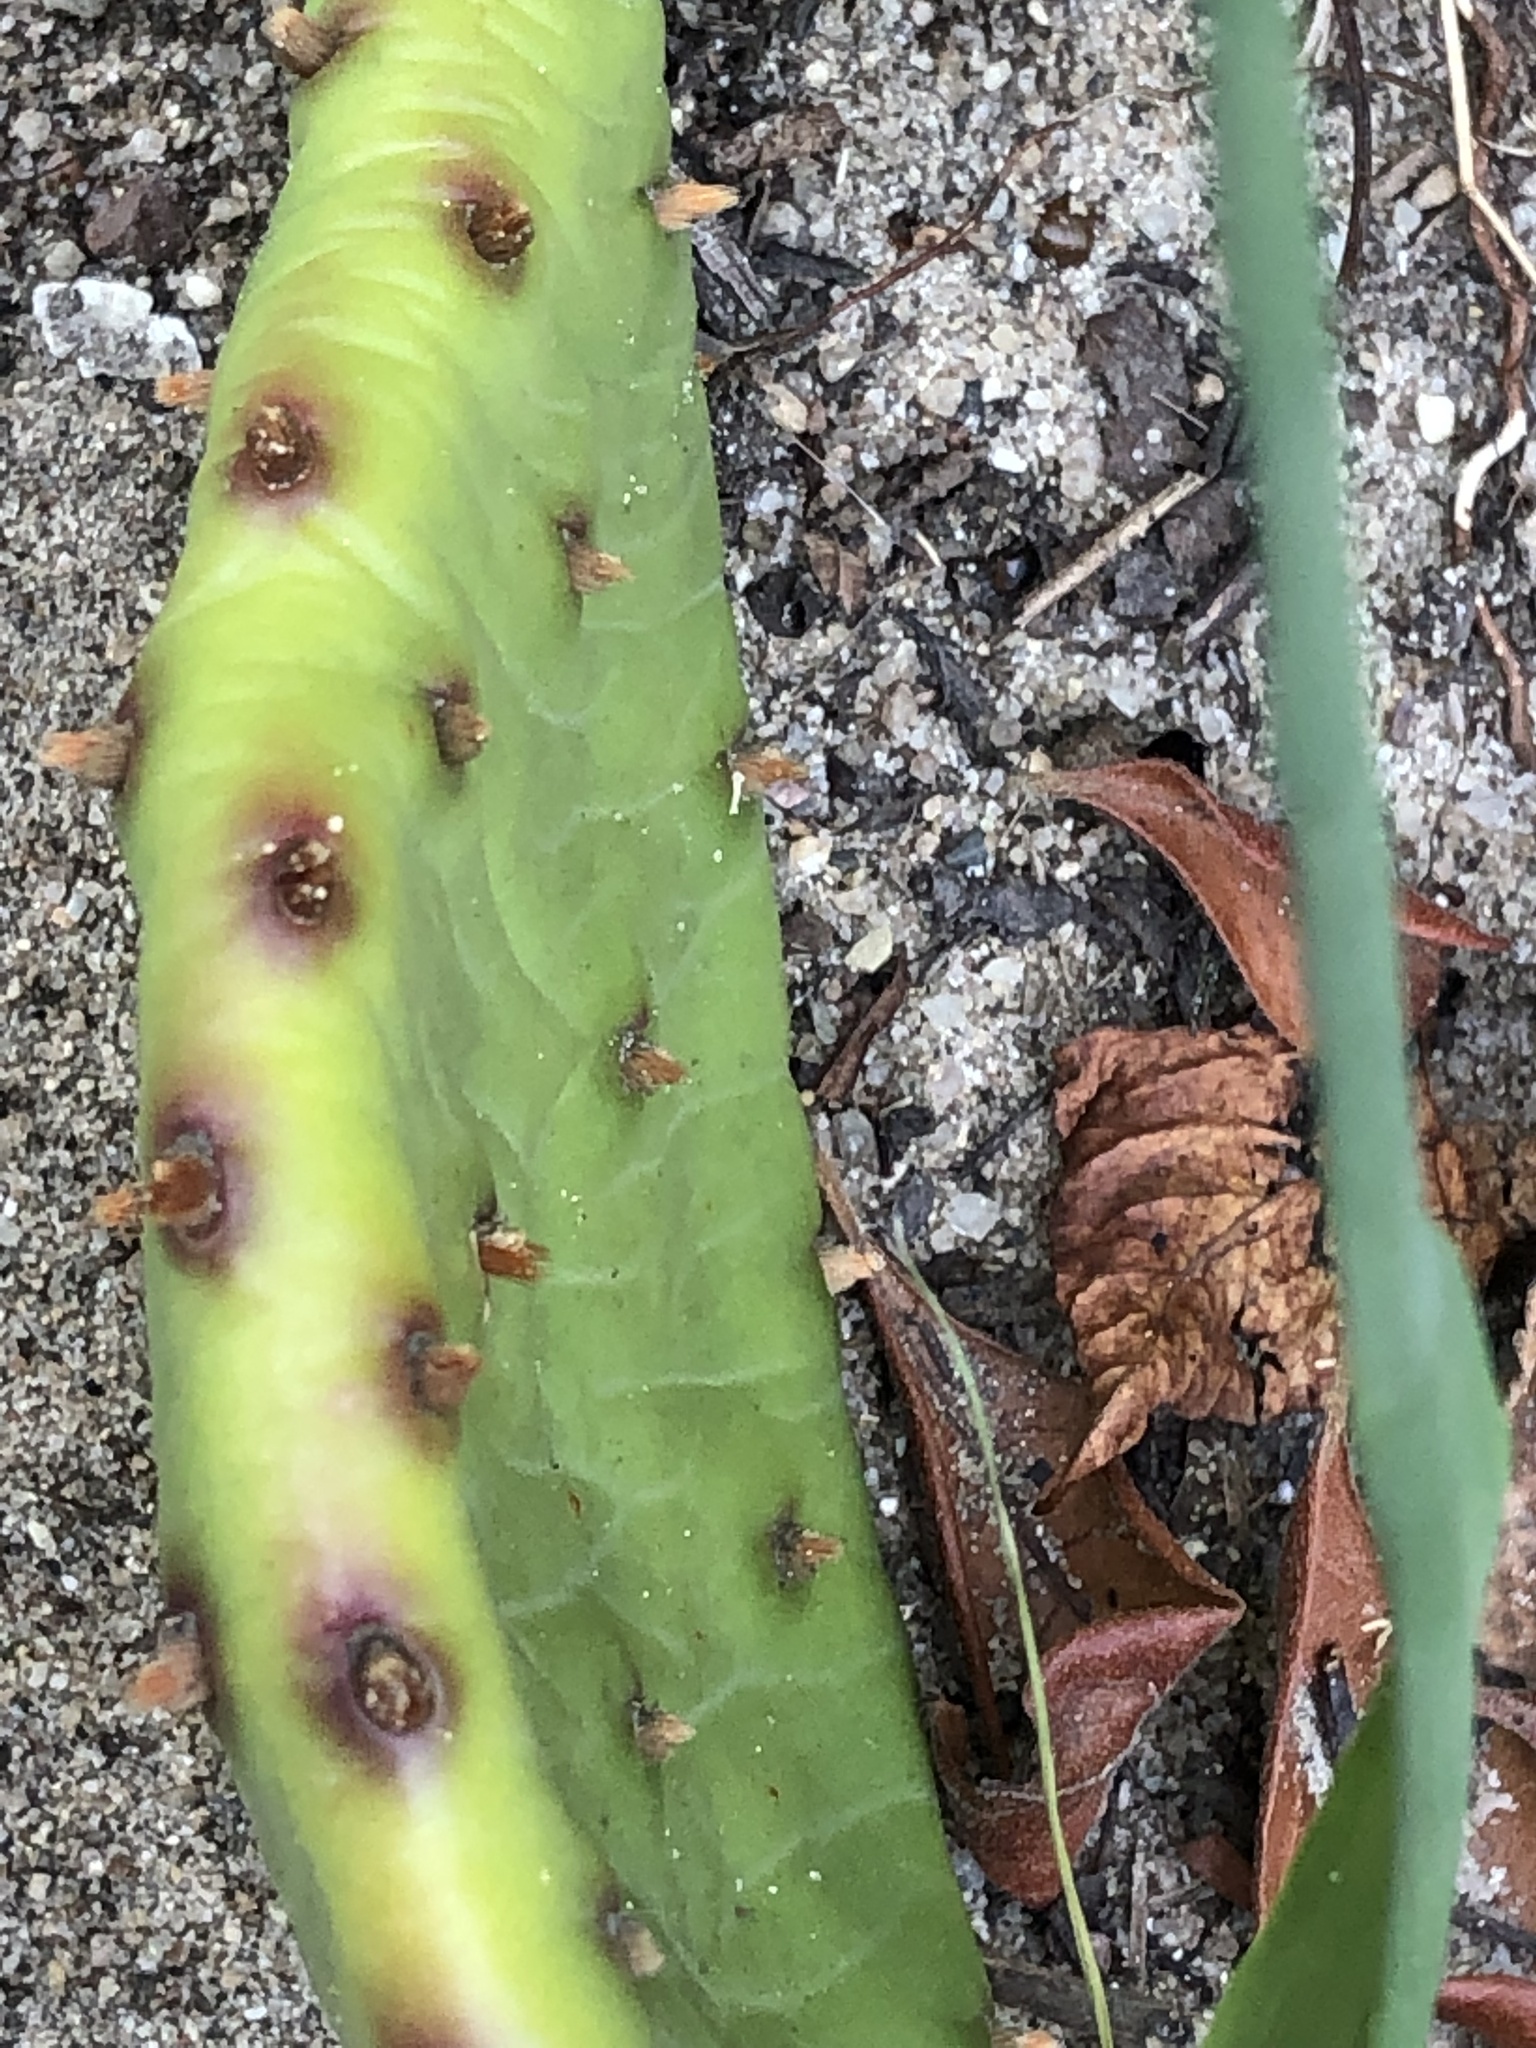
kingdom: Plantae
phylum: Tracheophyta
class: Magnoliopsida
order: Caryophyllales
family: Cactaceae
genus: Opuntia
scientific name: Opuntia humifusa
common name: Eastern prickly-pear
